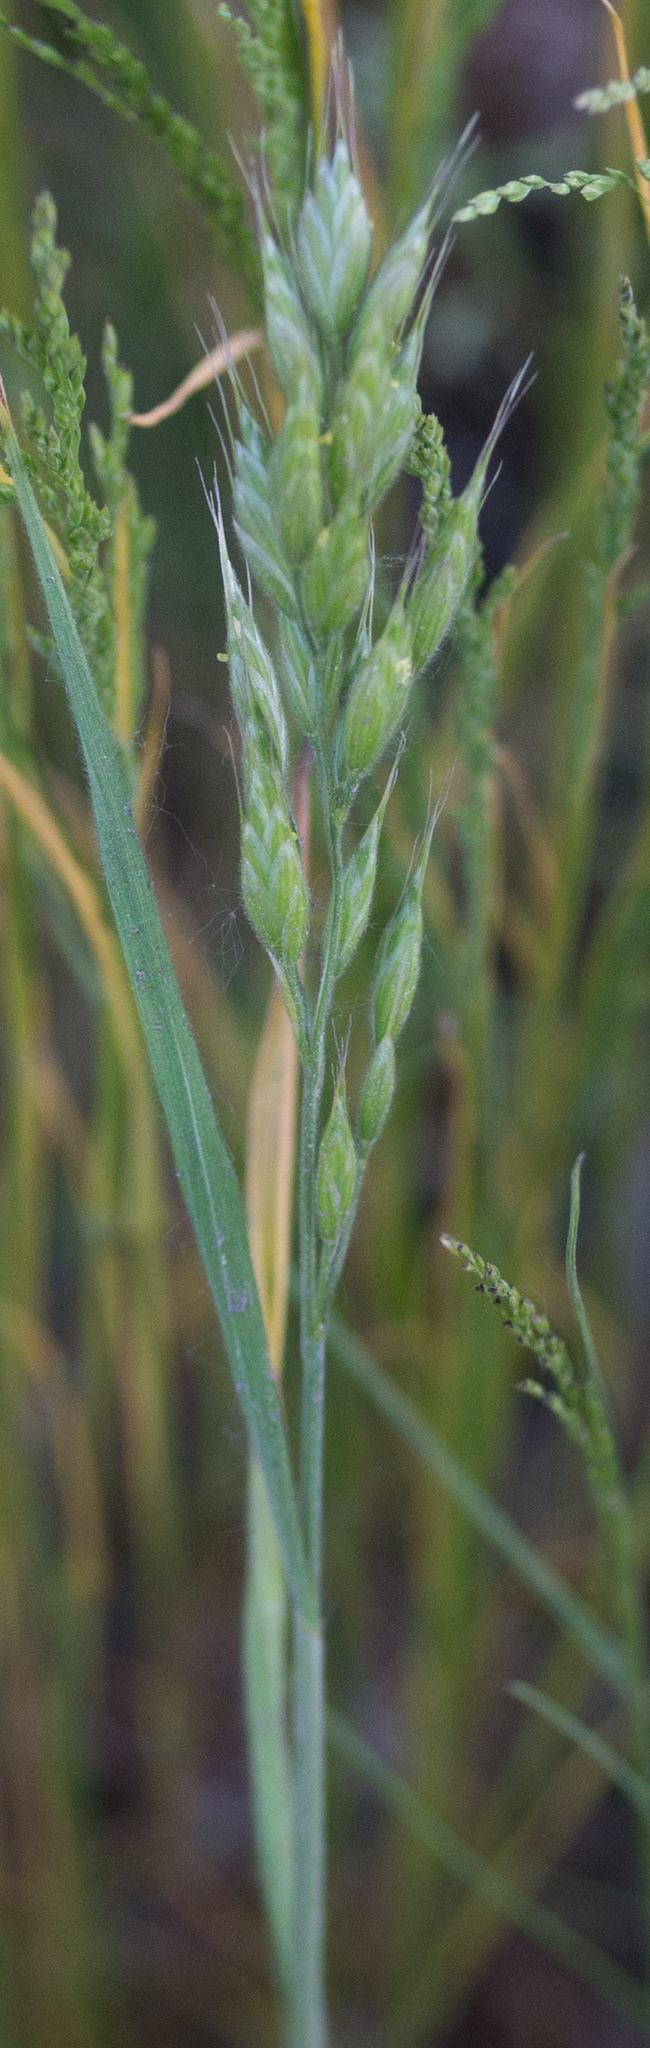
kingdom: Plantae
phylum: Tracheophyta
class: Liliopsida
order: Poales
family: Poaceae
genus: Bromus
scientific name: Bromus hordeaceus
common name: Soft brome
